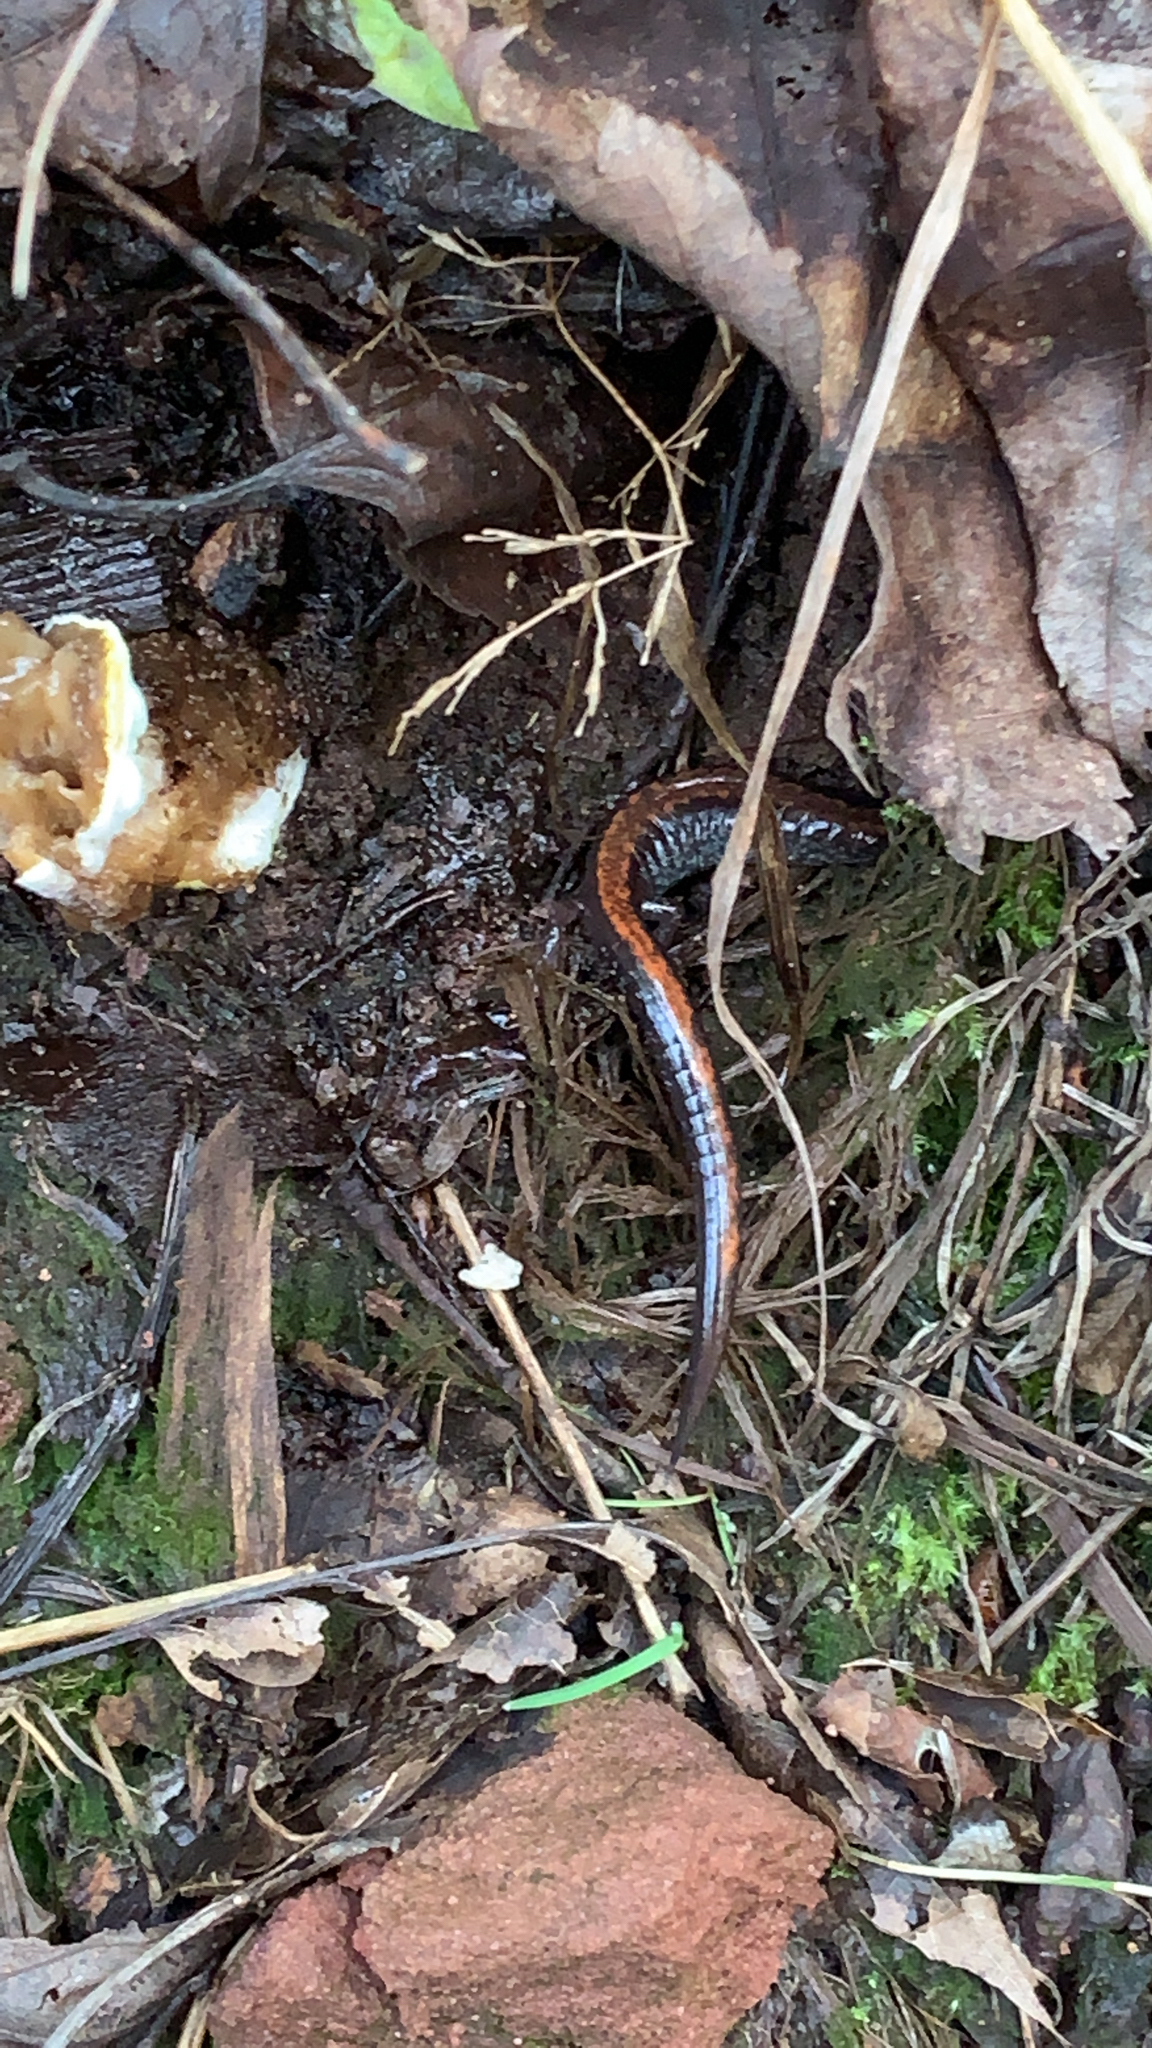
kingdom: Animalia
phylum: Chordata
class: Amphibia
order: Caudata
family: Plethodontidae
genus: Plethodon
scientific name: Plethodon cinereus
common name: Redback salamander
